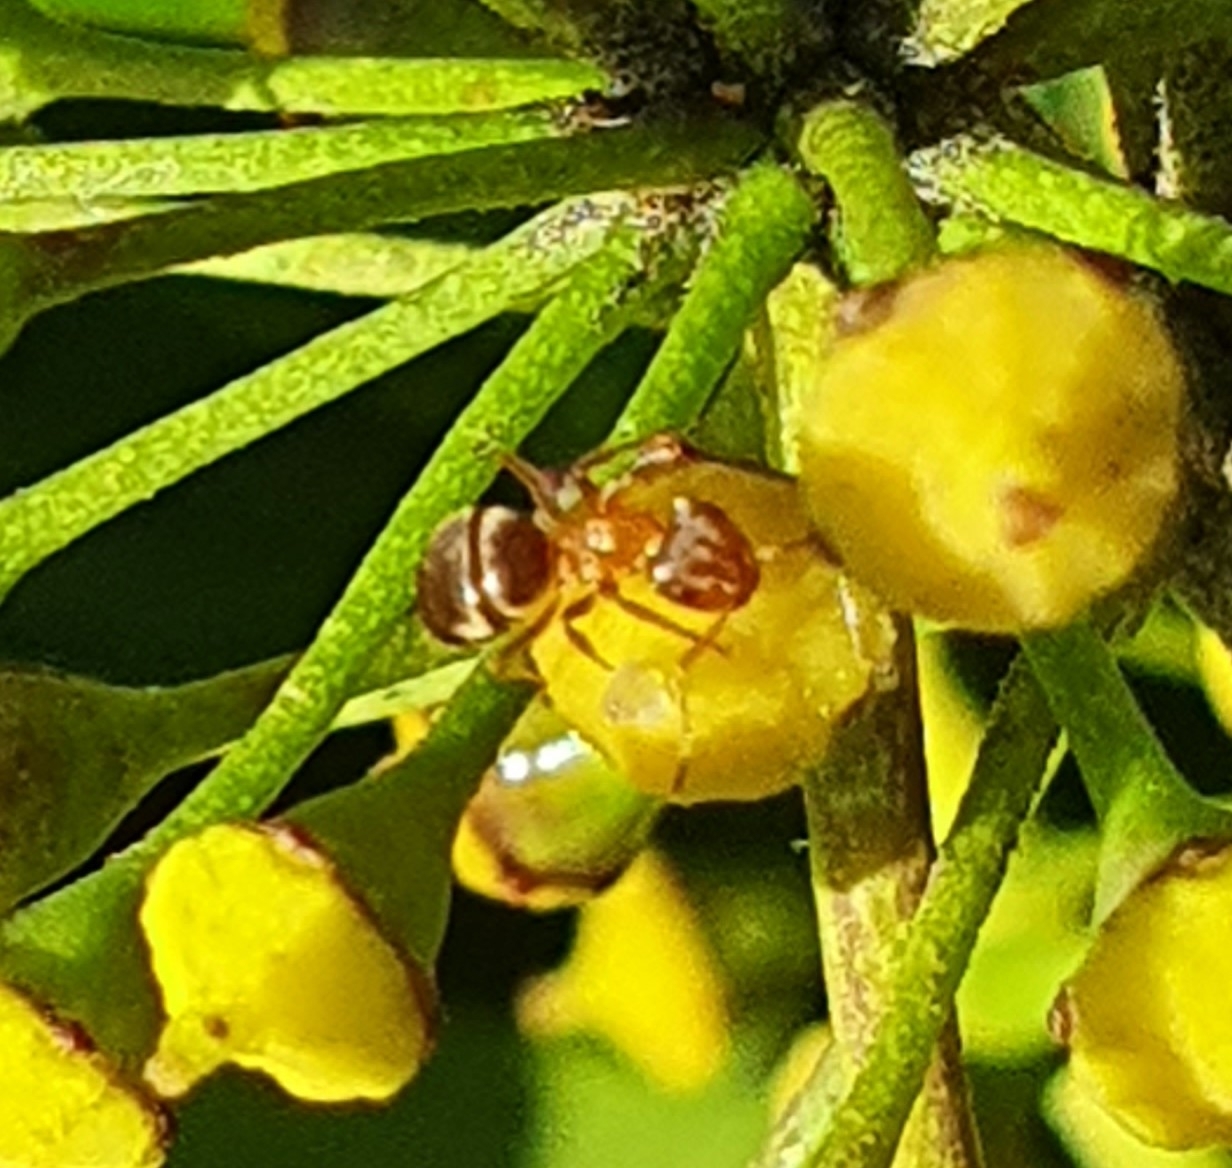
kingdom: Animalia
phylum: Arthropoda
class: Insecta
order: Hymenoptera
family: Formicidae
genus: Lasius
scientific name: Lasius brunneus
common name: Brown ant
